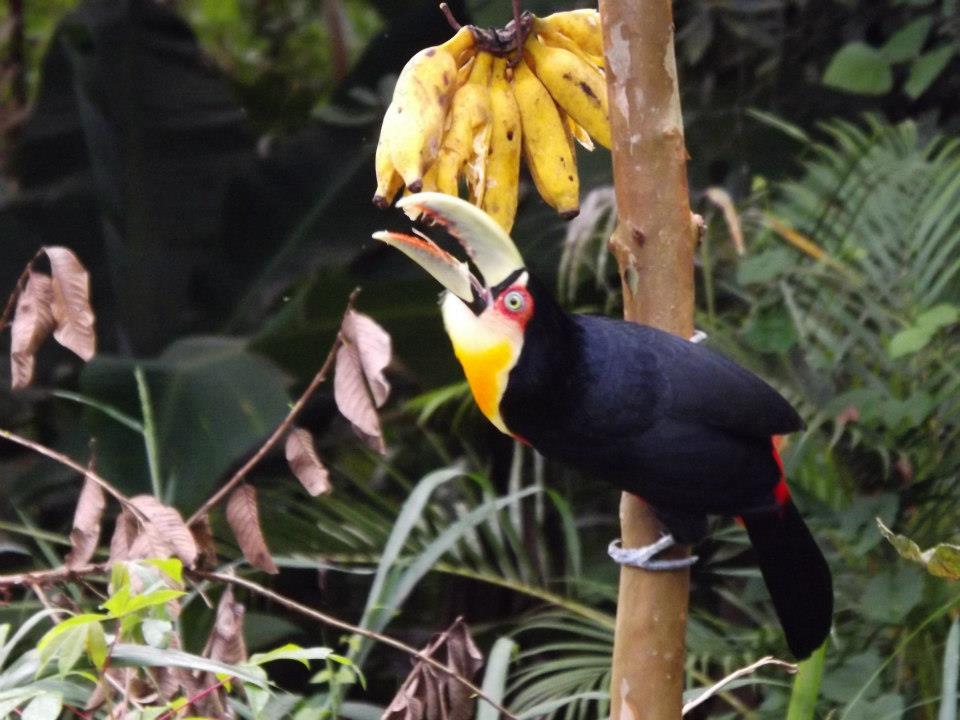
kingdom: Animalia
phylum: Chordata
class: Aves
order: Piciformes
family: Ramphastidae
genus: Ramphastos
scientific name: Ramphastos dicolorus
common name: Green-billed toucan
